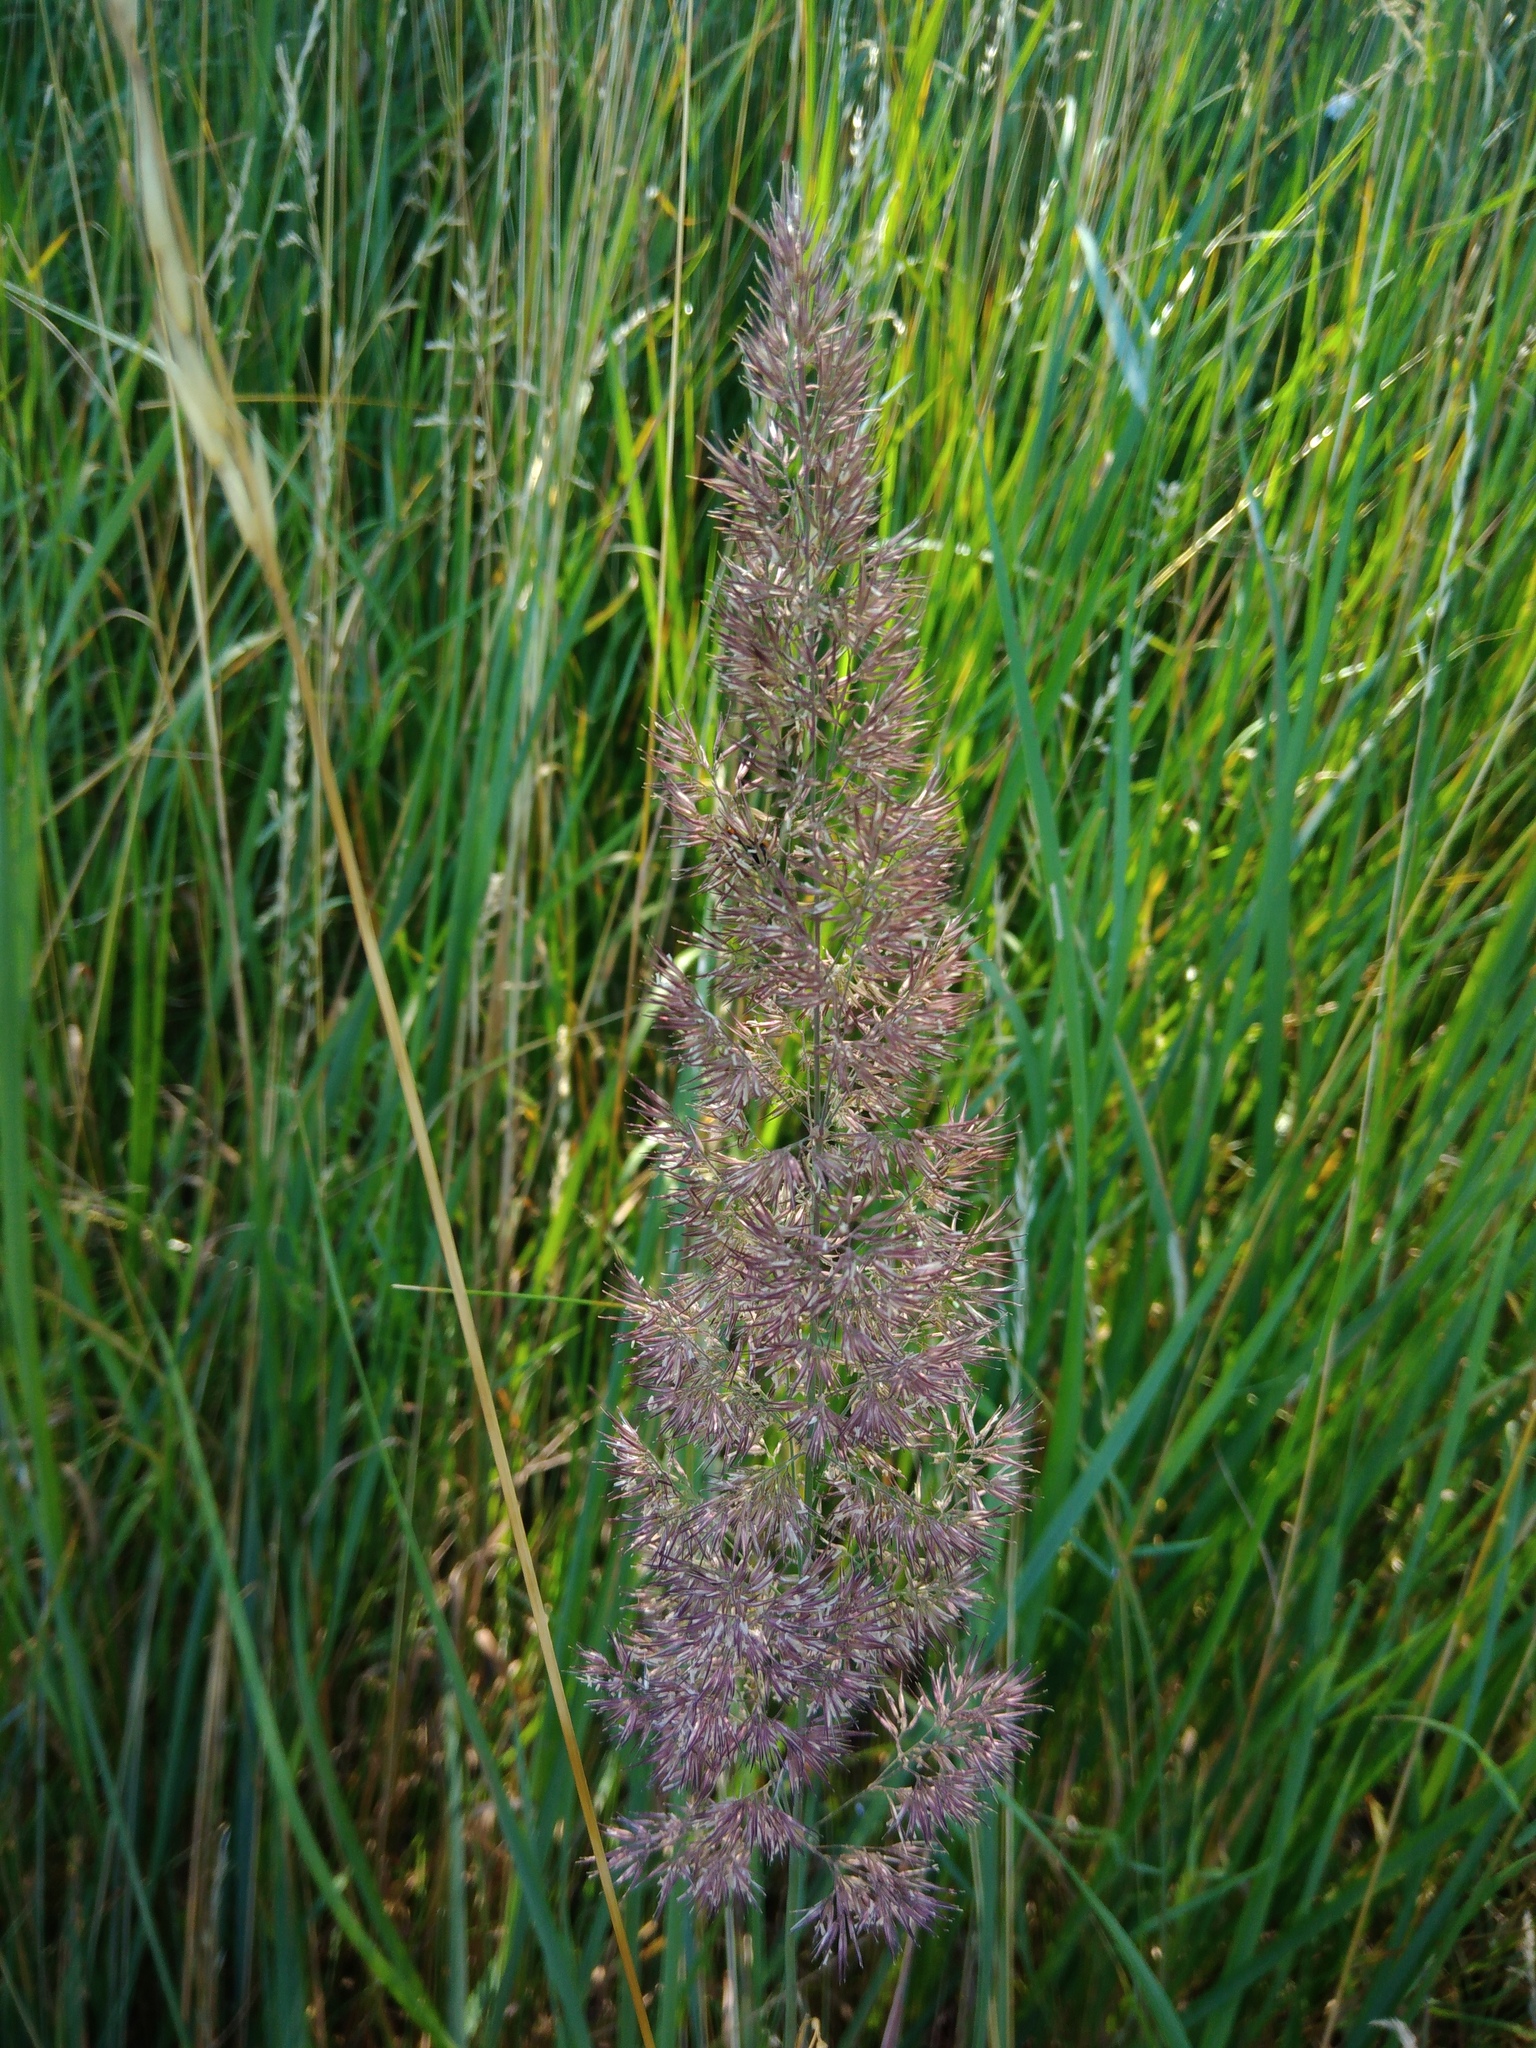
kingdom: Plantae
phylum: Tracheophyta
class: Liliopsida
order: Poales
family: Poaceae
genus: Calamagrostis
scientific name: Calamagrostis epigejos
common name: Wood small-reed
